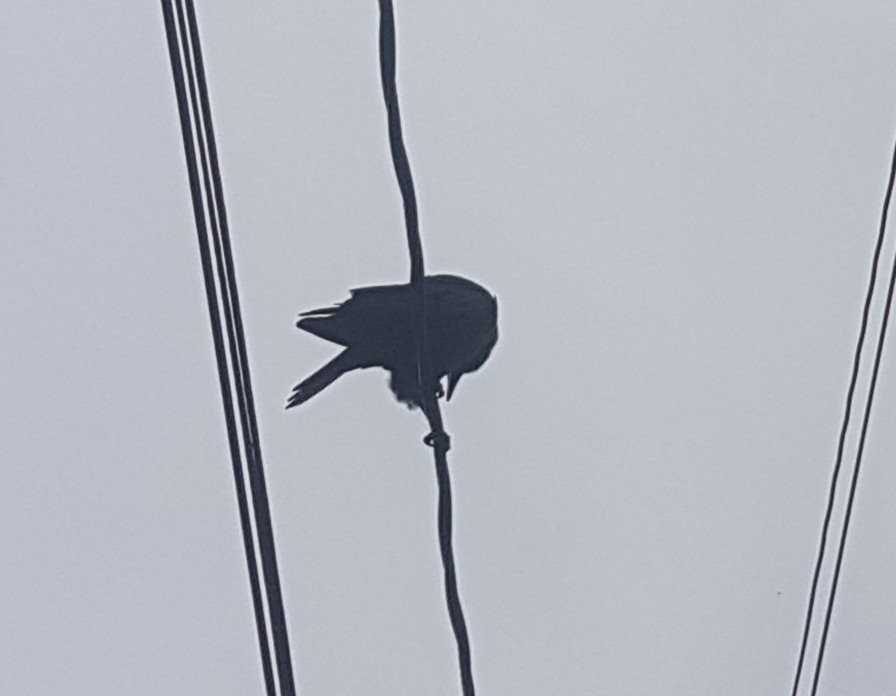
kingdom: Animalia
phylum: Chordata
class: Aves
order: Passeriformes
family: Corvidae
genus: Corvus
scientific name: Corvus brachyrhynchos
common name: American crow
